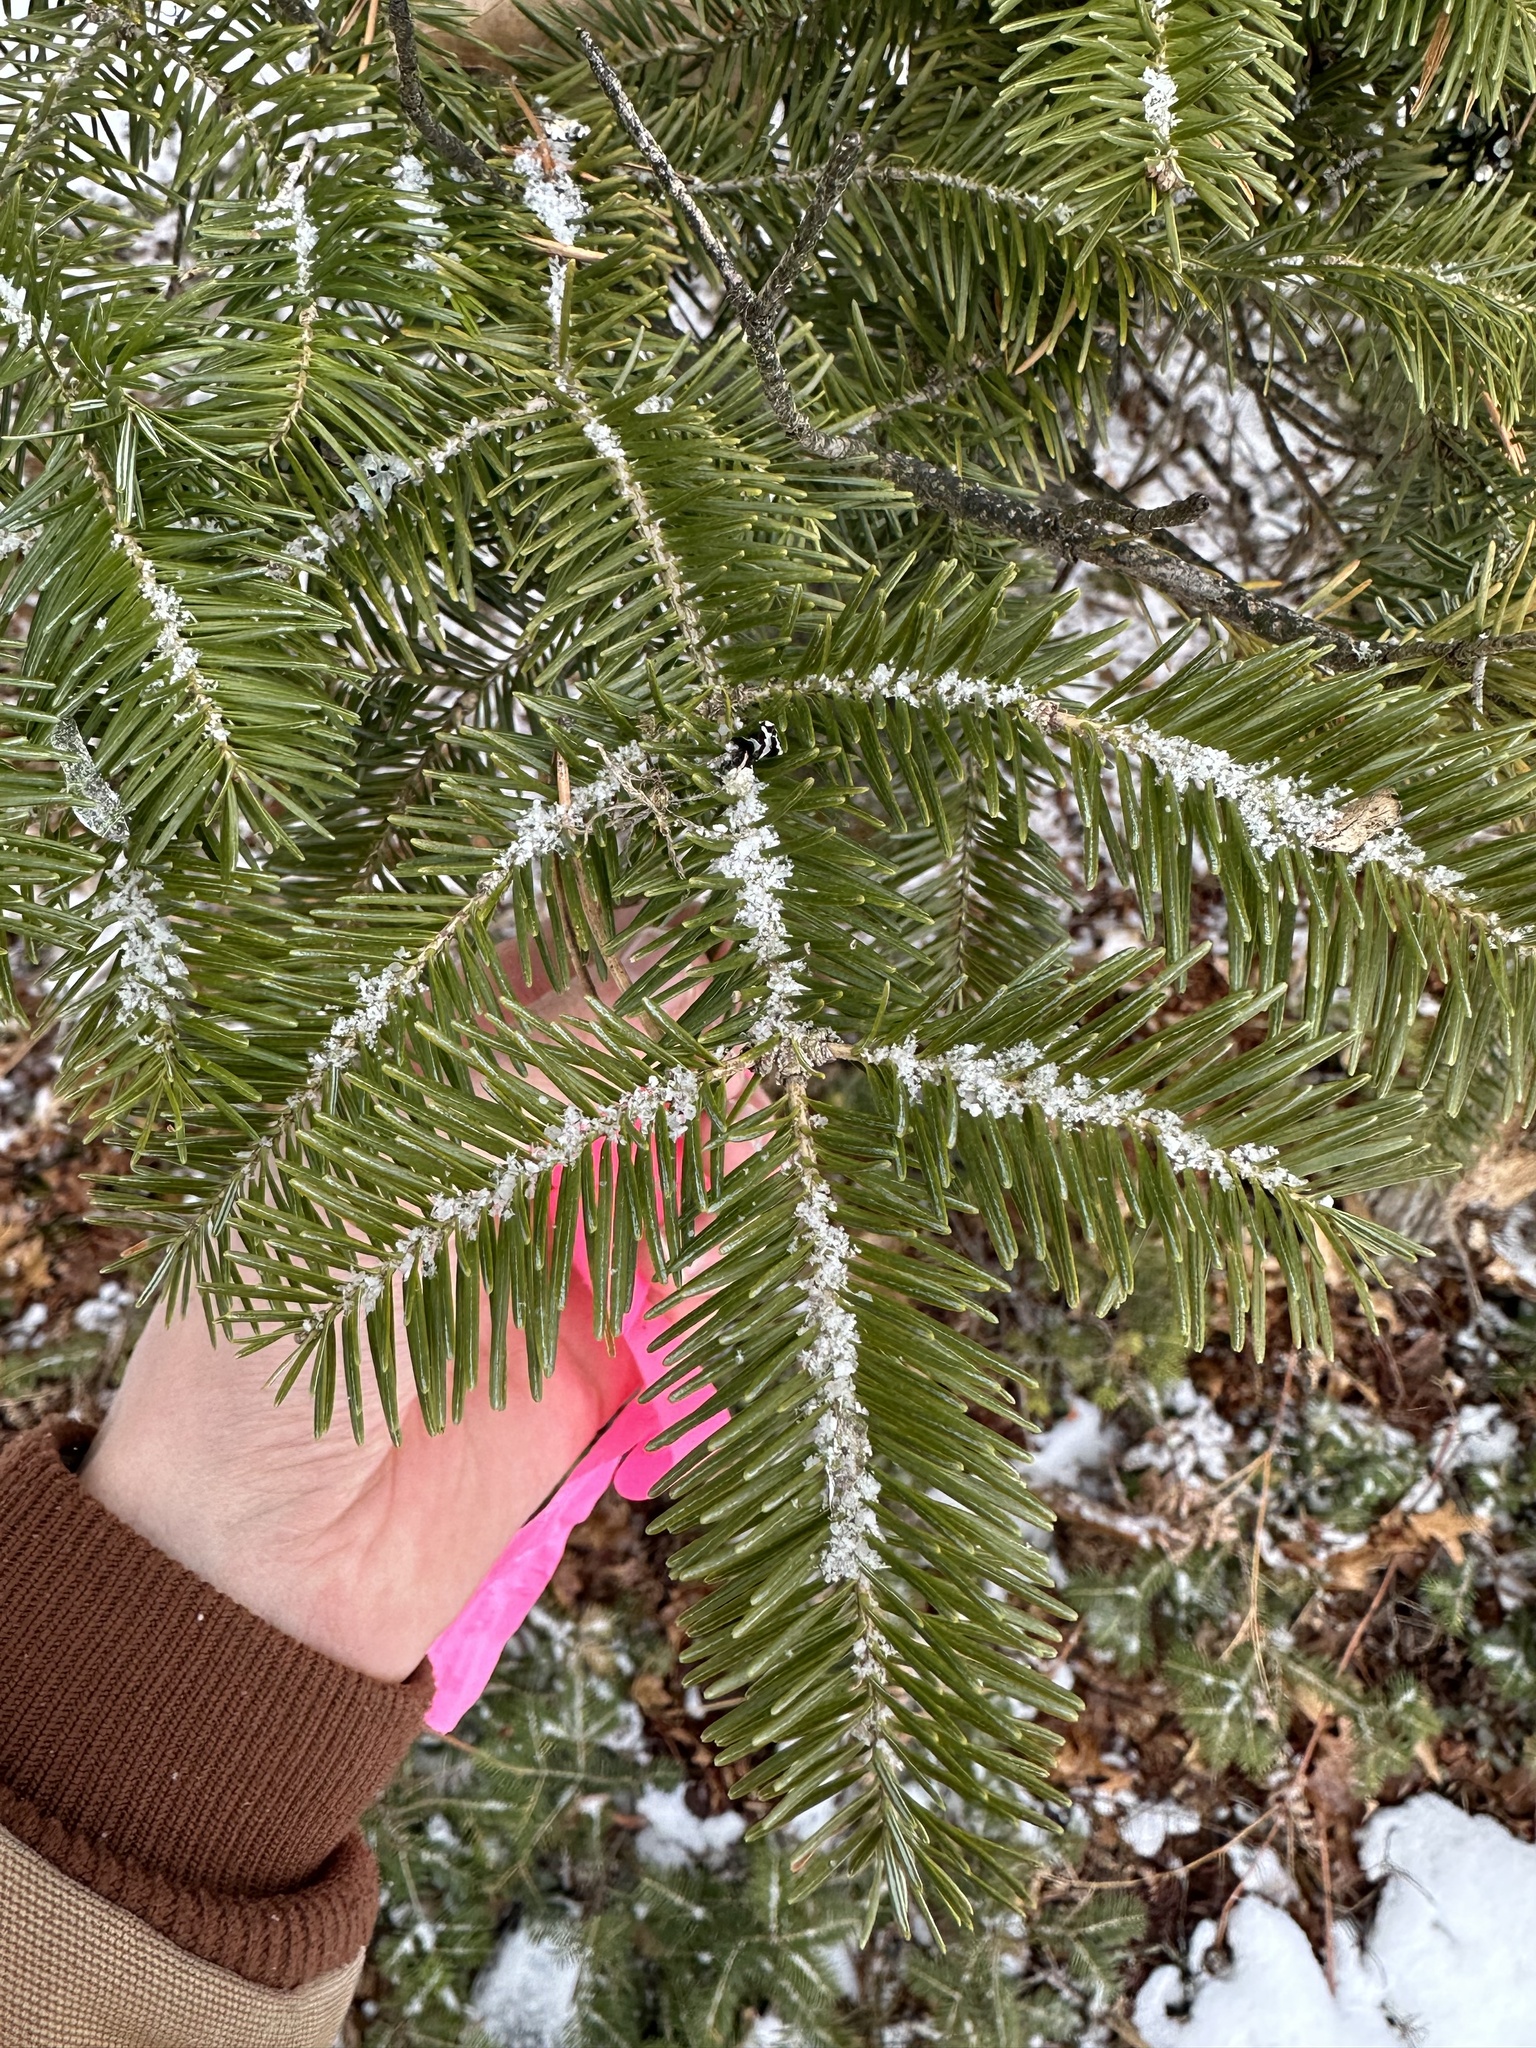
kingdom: Plantae
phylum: Tracheophyta
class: Pinopsida
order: Pinales
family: Pinaceae
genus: Abies
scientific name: Abies balsamea
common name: Balsam fir
